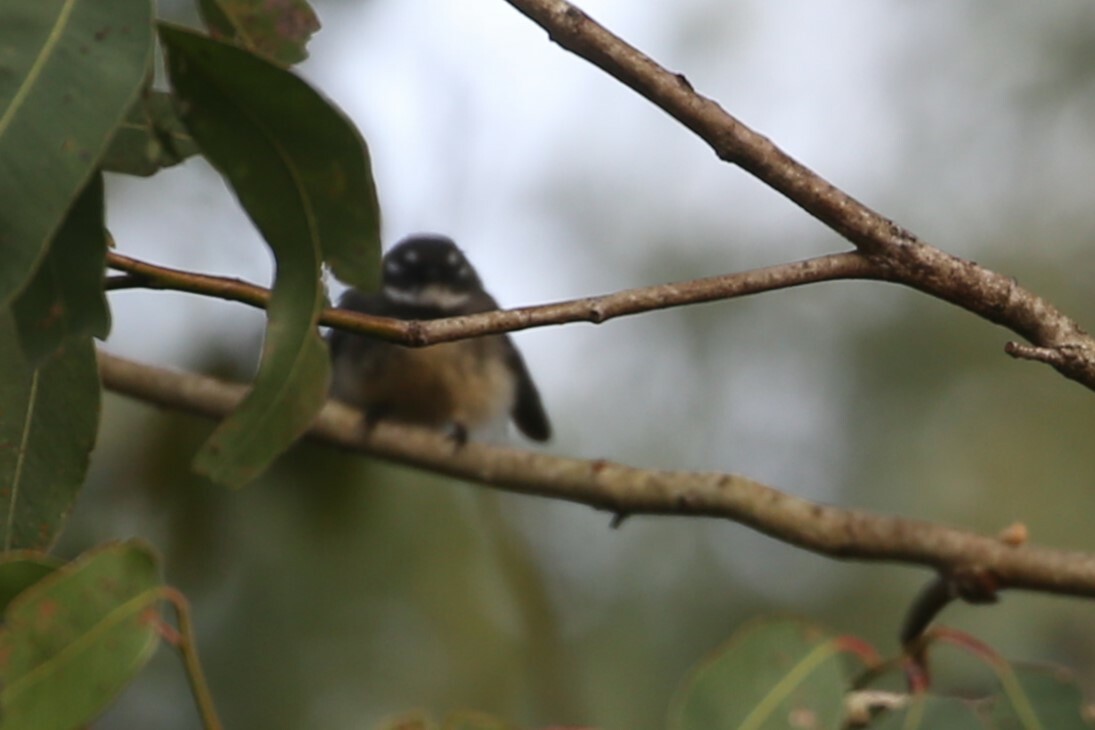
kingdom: Animalia
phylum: Chordata
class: Aves
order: Passeriformes
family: Rhipiduridae
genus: Rhipidura
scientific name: Rhipidura albiscapa
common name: Grey fantail
